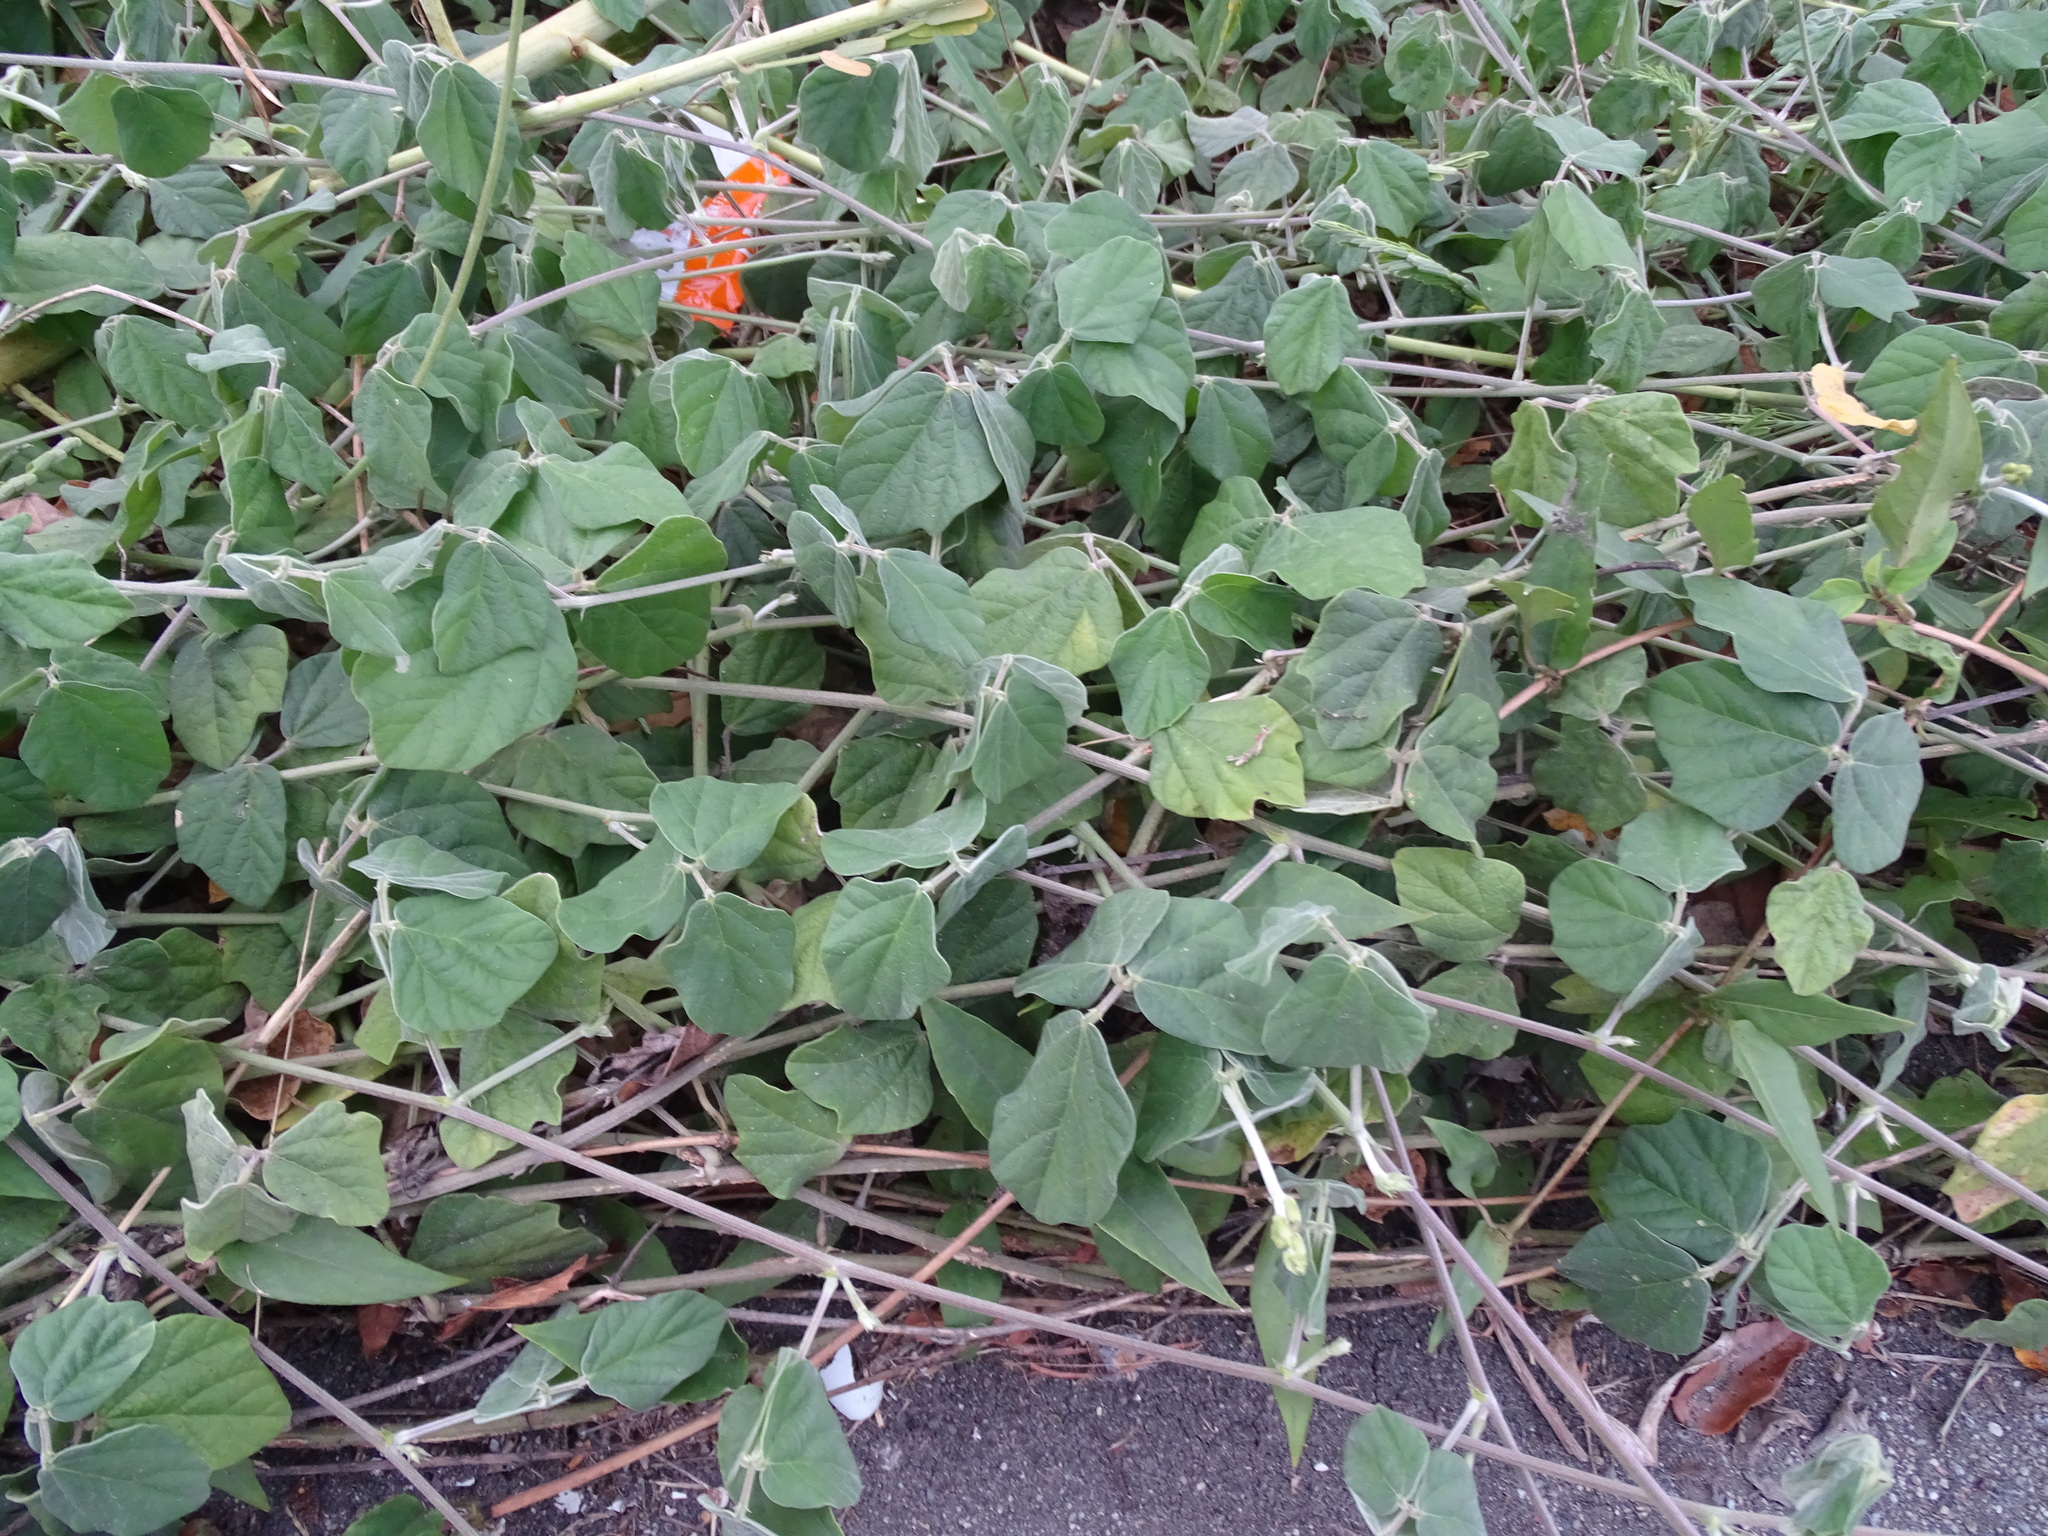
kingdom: Plantae
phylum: Tracheophyta
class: Magnoliopsida
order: Fabales
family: Fabaceae
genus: Macroptilium
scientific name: Macroptilium atropurpureum
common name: Purple bushbean
